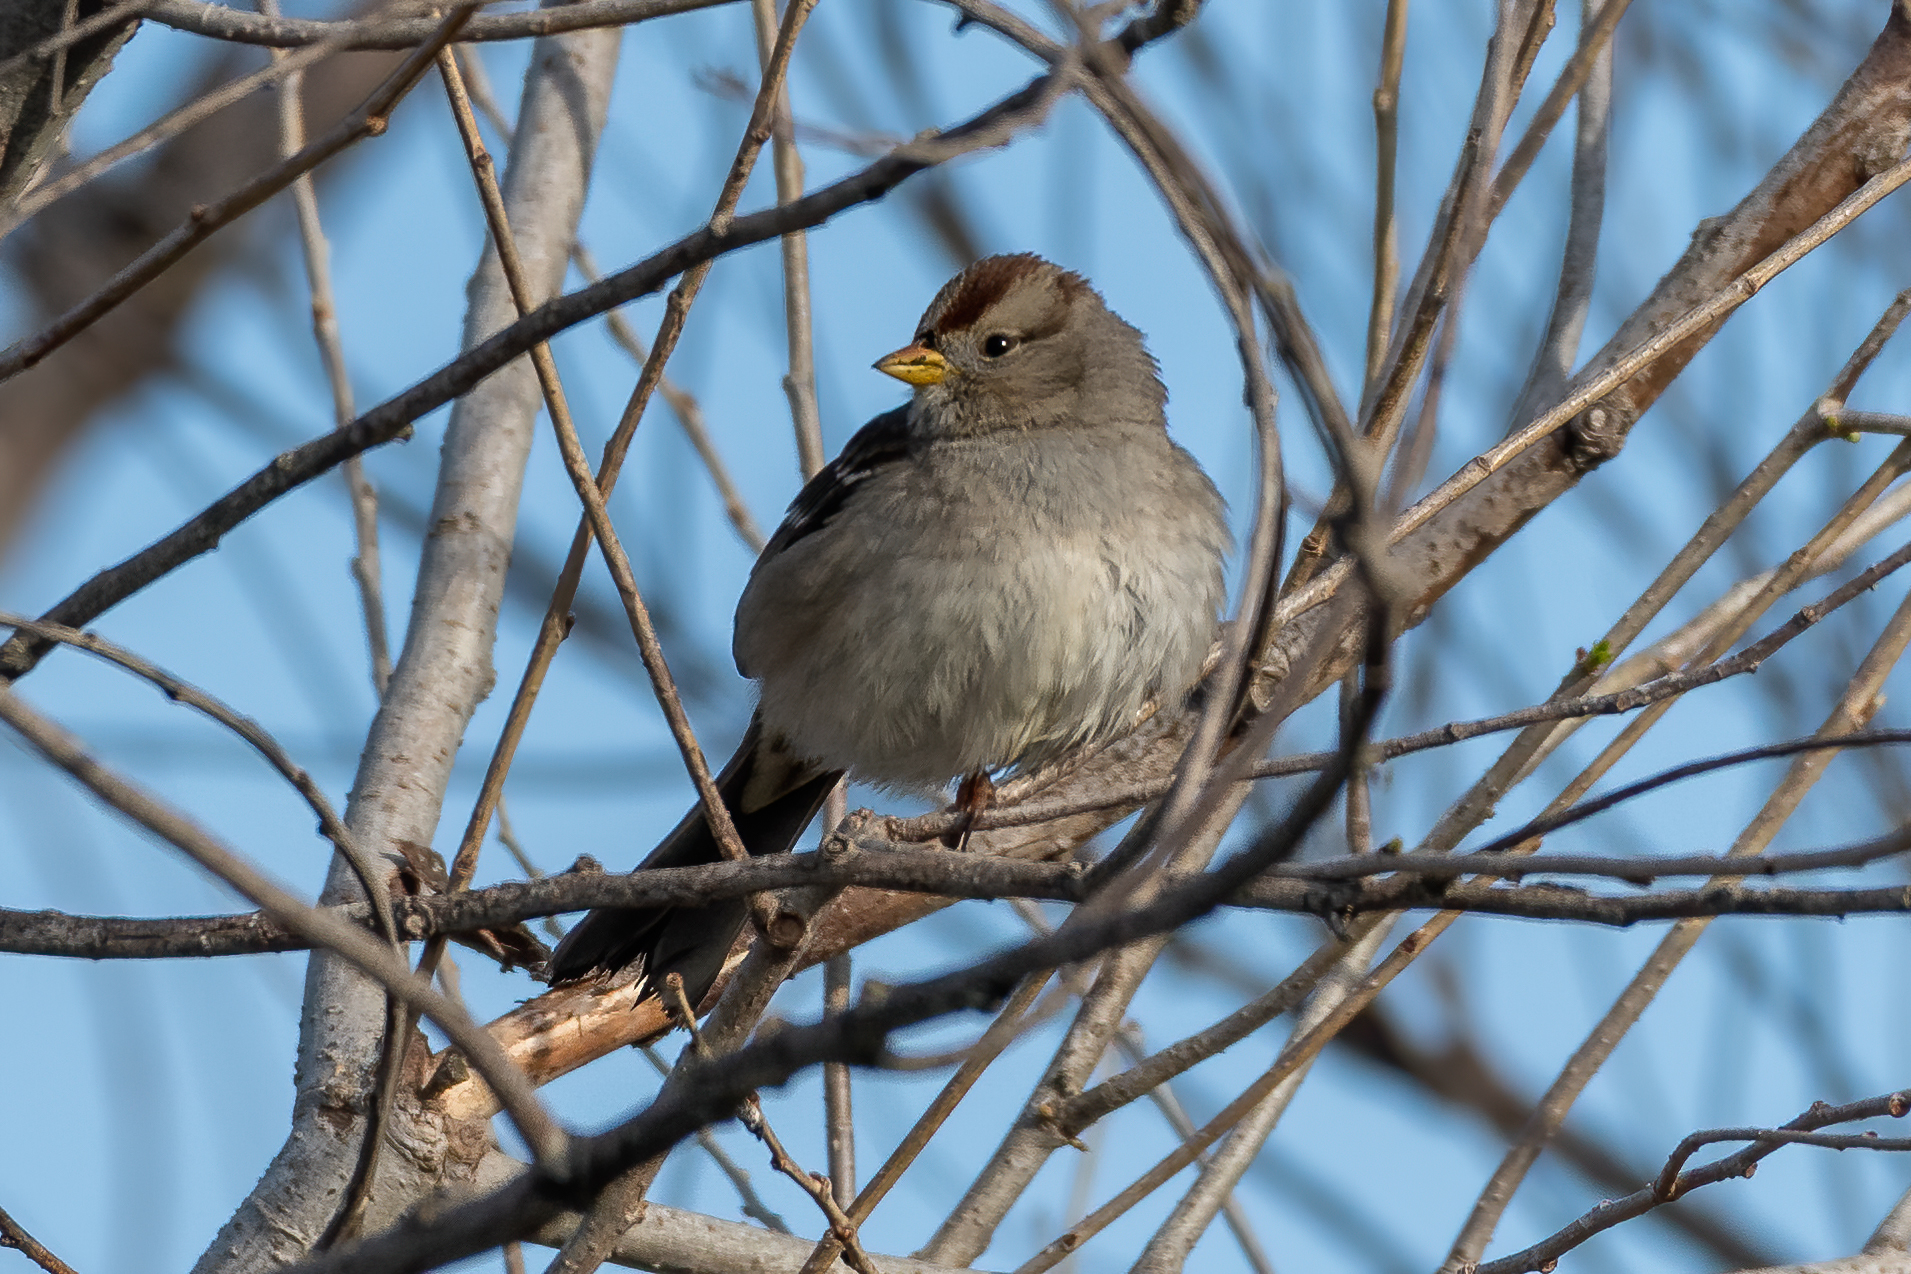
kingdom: Animalia
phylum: Chordata
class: Aves
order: Passeriformes
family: Passerellidae
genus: Zonotrichia
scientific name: Zonotrichia leucophrys
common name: White-crowned sparrow
